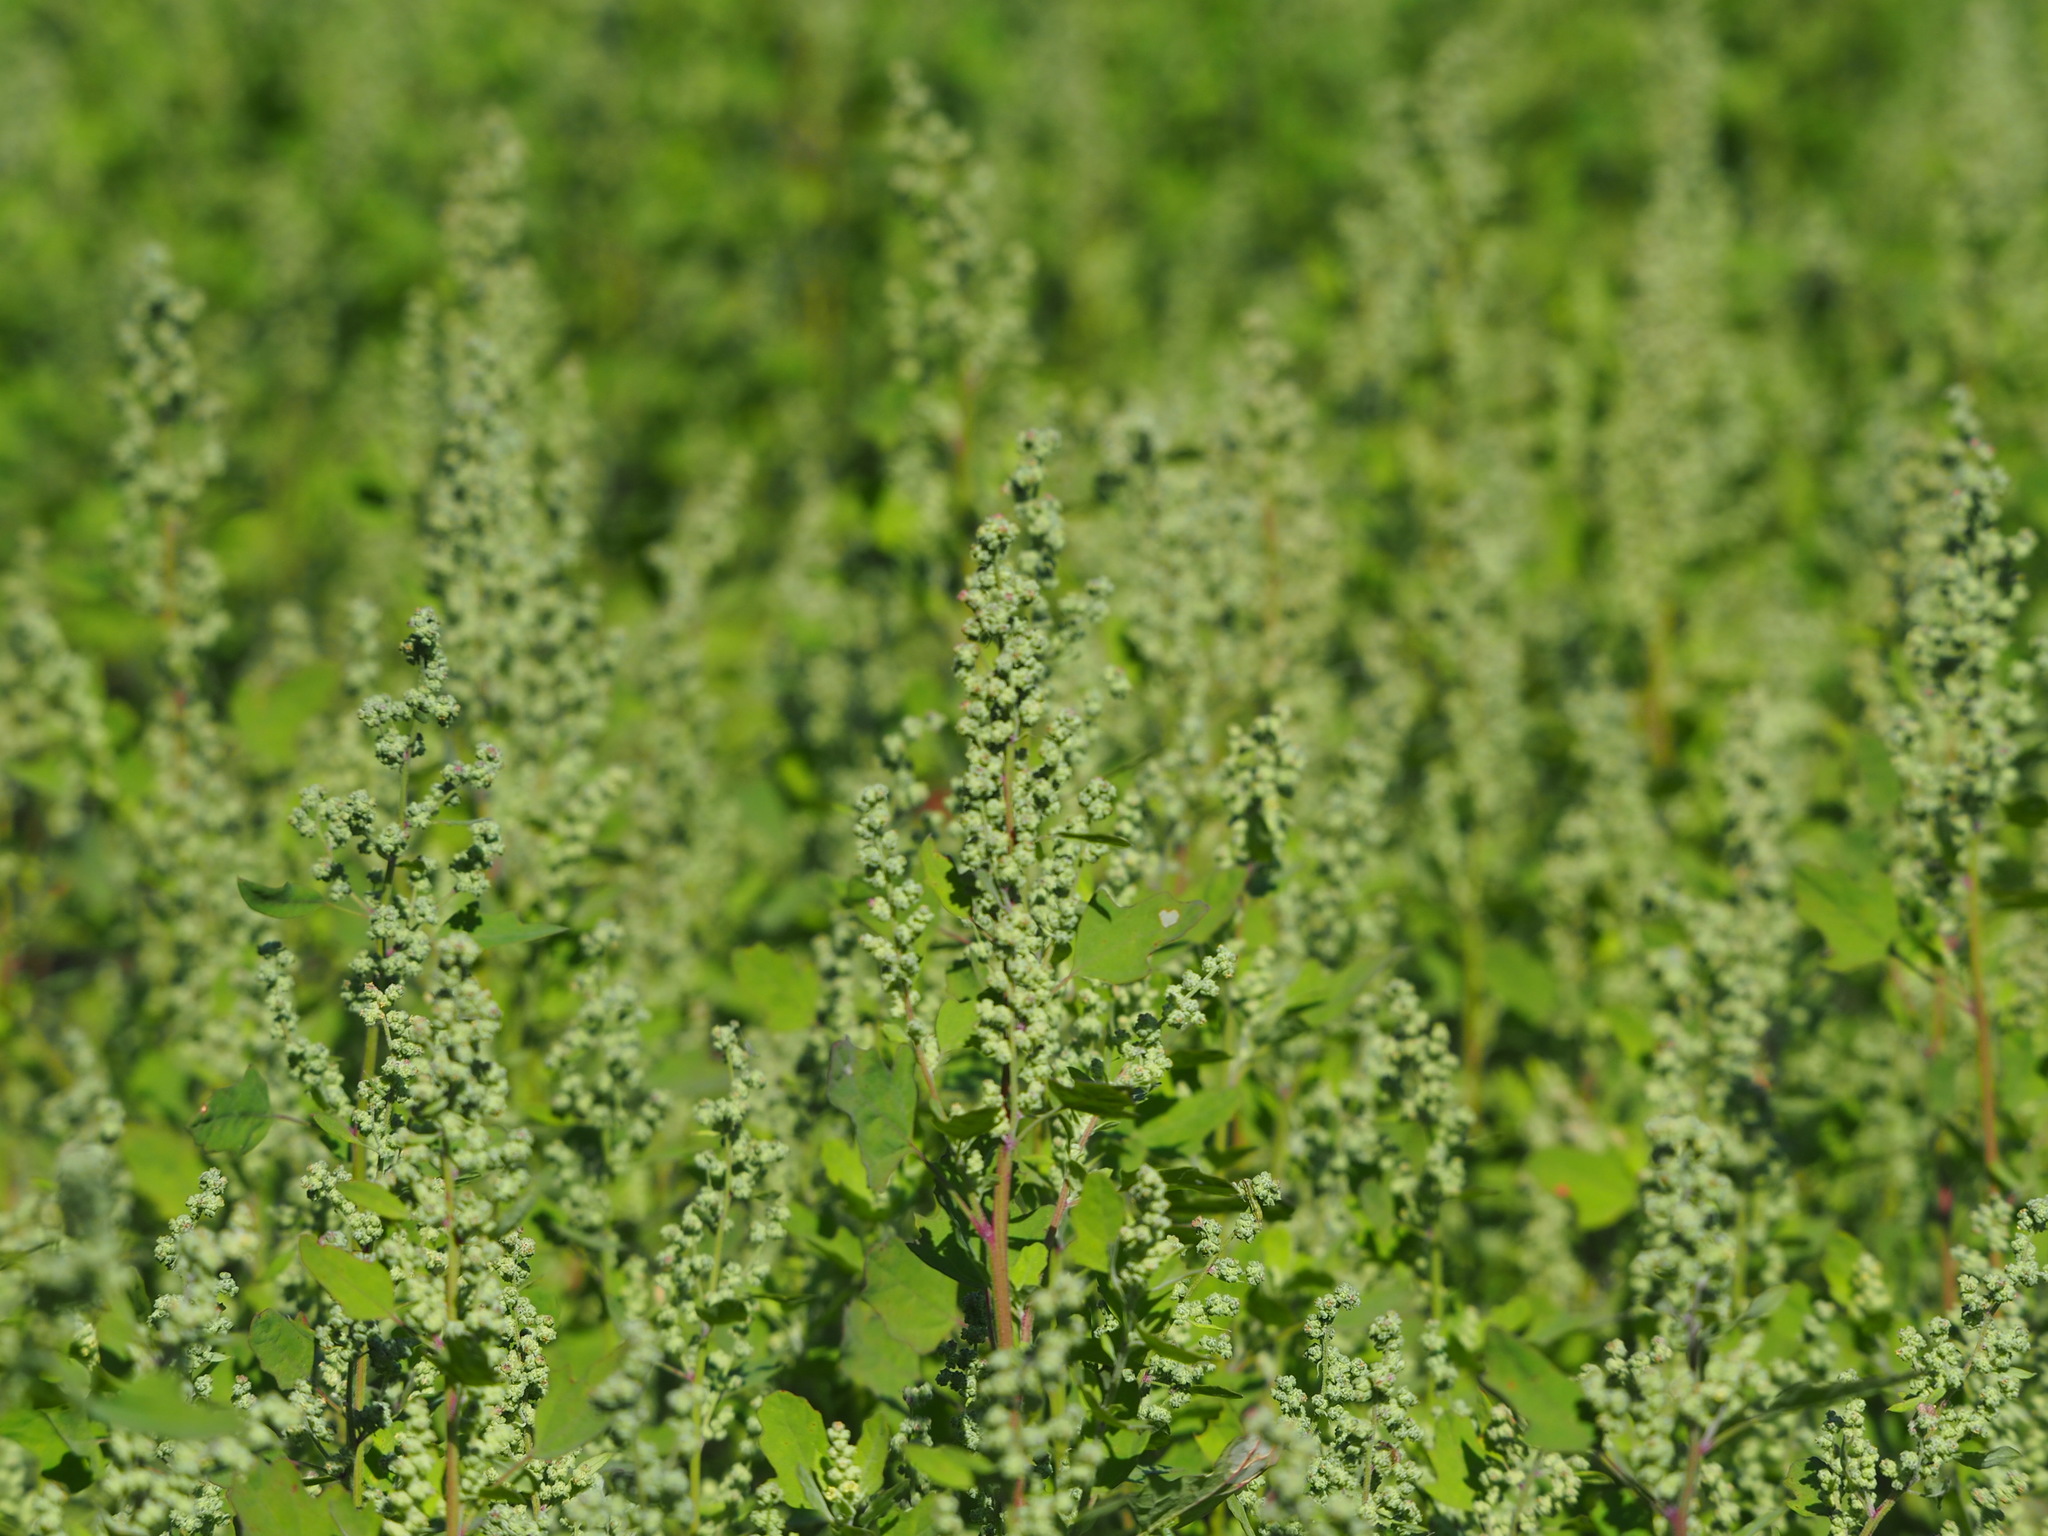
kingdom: Plantae
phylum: Tracheophyta
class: Magnoliopsida
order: Caryophyllales
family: Amaranthaceae
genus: Chenopodium
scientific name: Chenopodium ficifolium
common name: Fig-leaved goosefoot
